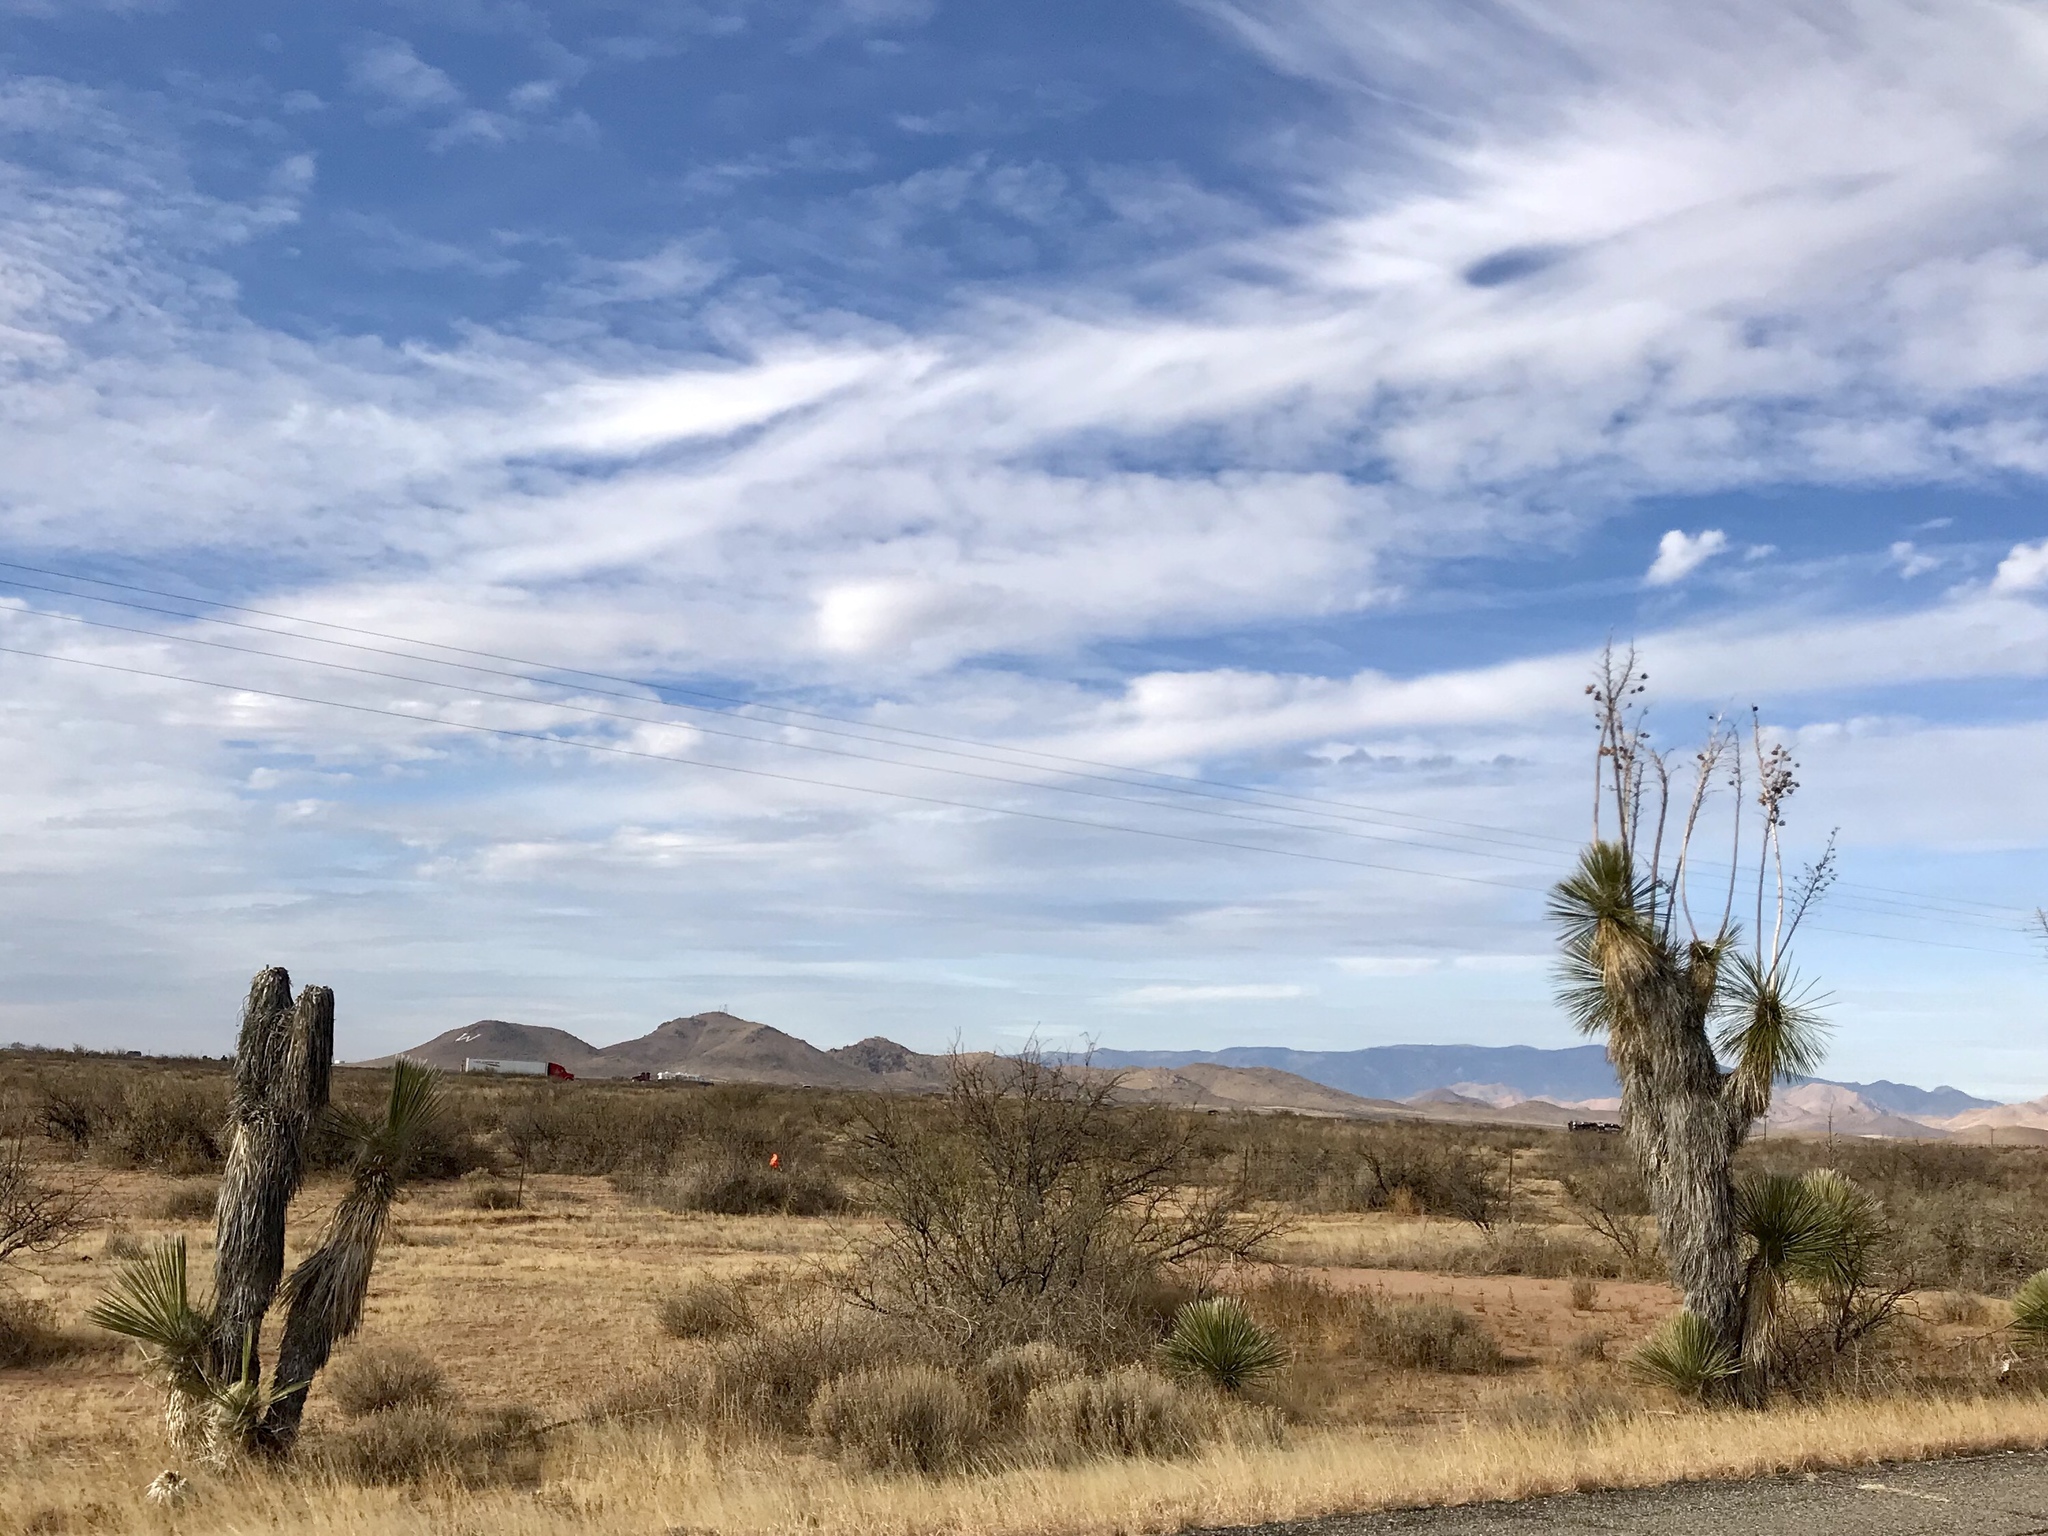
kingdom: Plantae
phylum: Tracheophyta
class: Liliopsida
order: Asparagales
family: Asparagaceae
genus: Yucca
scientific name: Yucca elata
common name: Palmella
